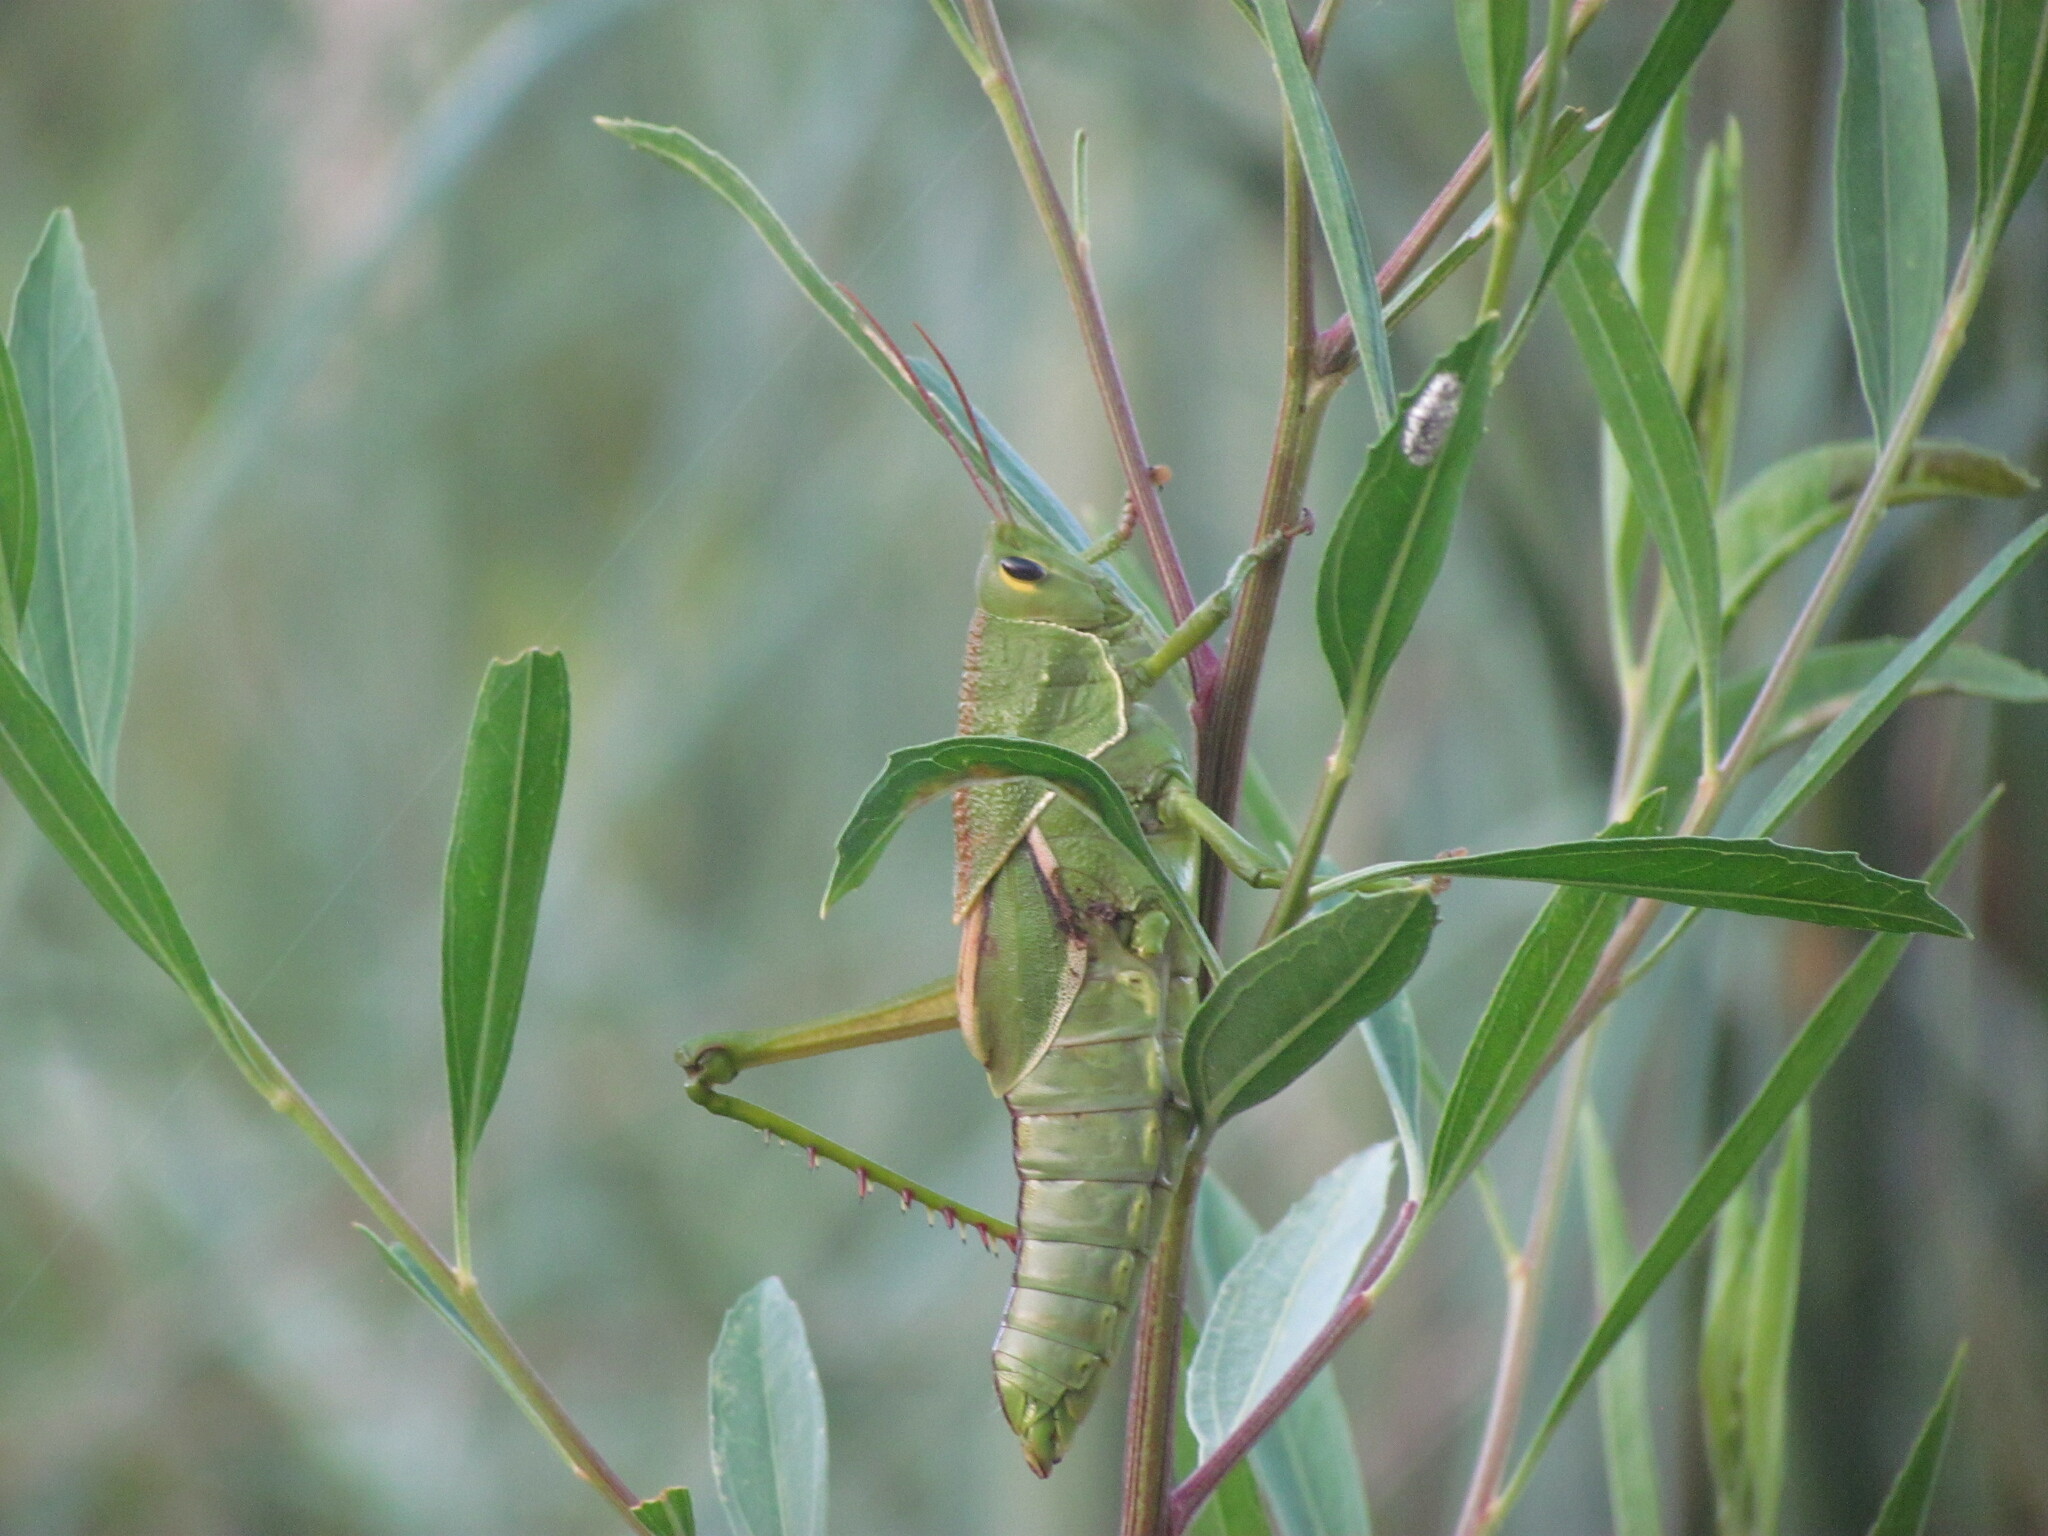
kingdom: Animalia
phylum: Arthropoda
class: Insecta
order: Orthoptera
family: Romaleidae
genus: Staleochlora
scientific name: Staleochlora viridicata
